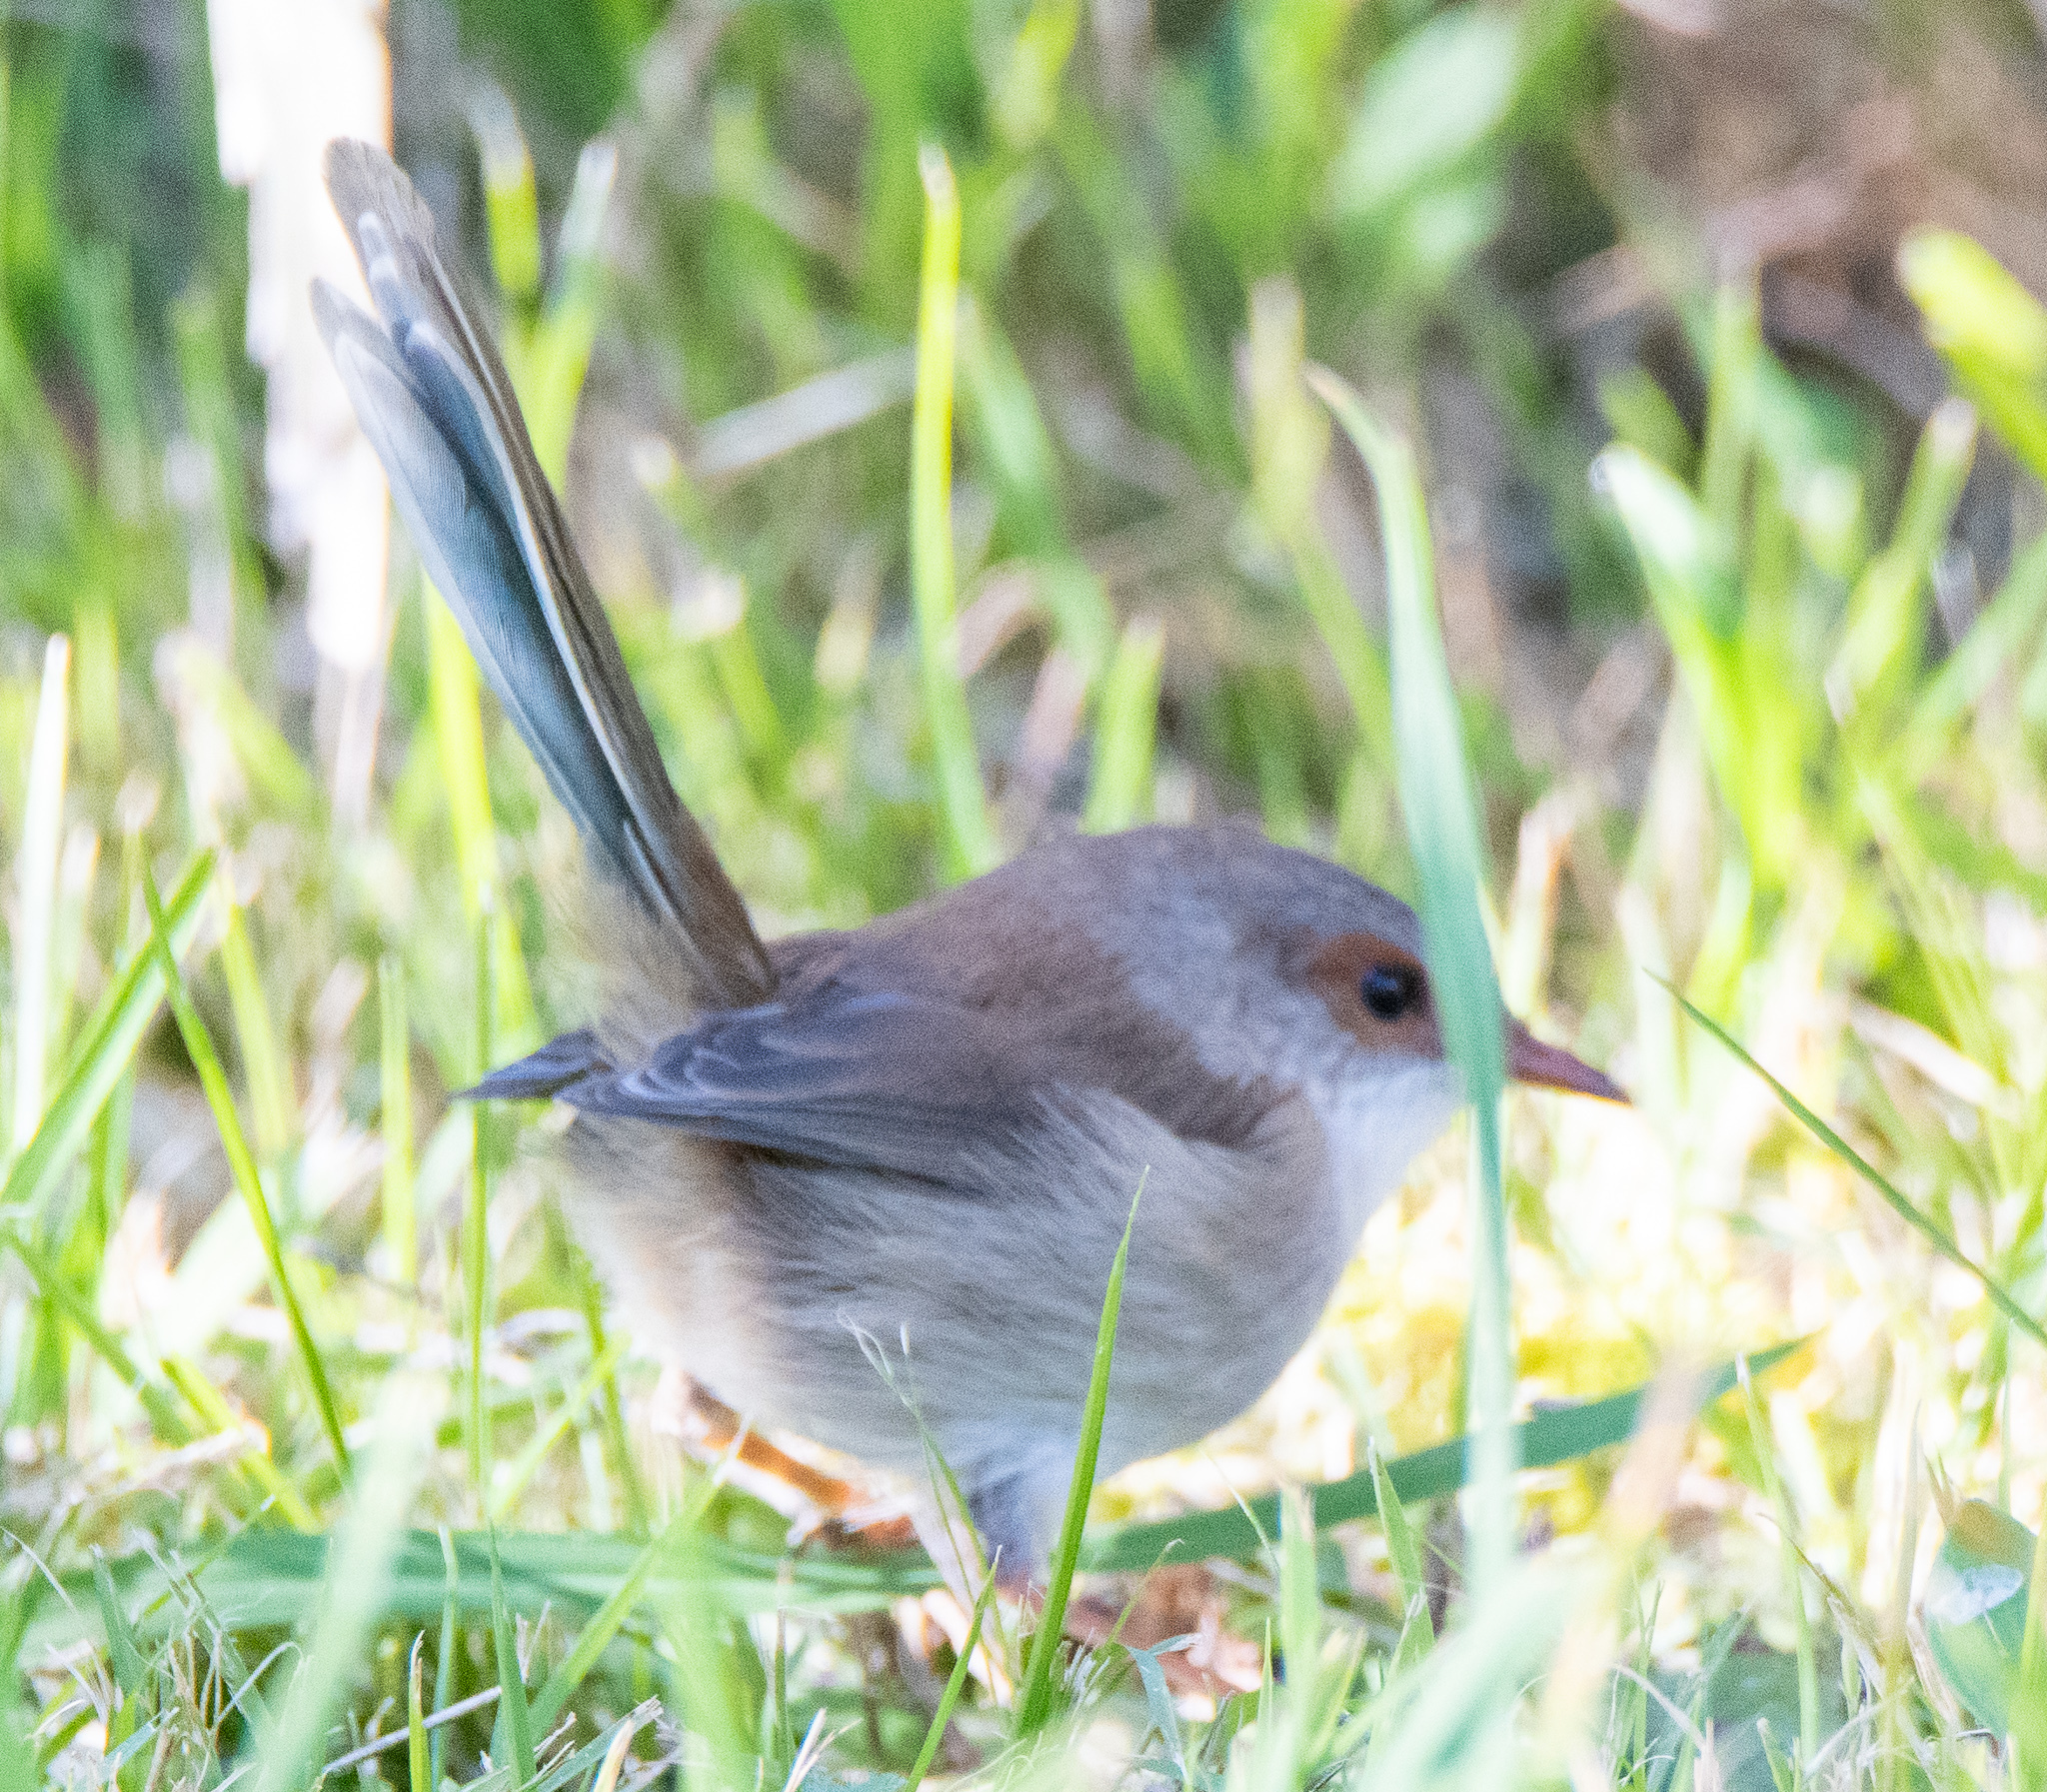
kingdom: Animalia
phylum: Chordata
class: Aves
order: Passeriformes
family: Maluridae
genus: Malurus
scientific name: Malurus cyaneus
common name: Superb fairywren
